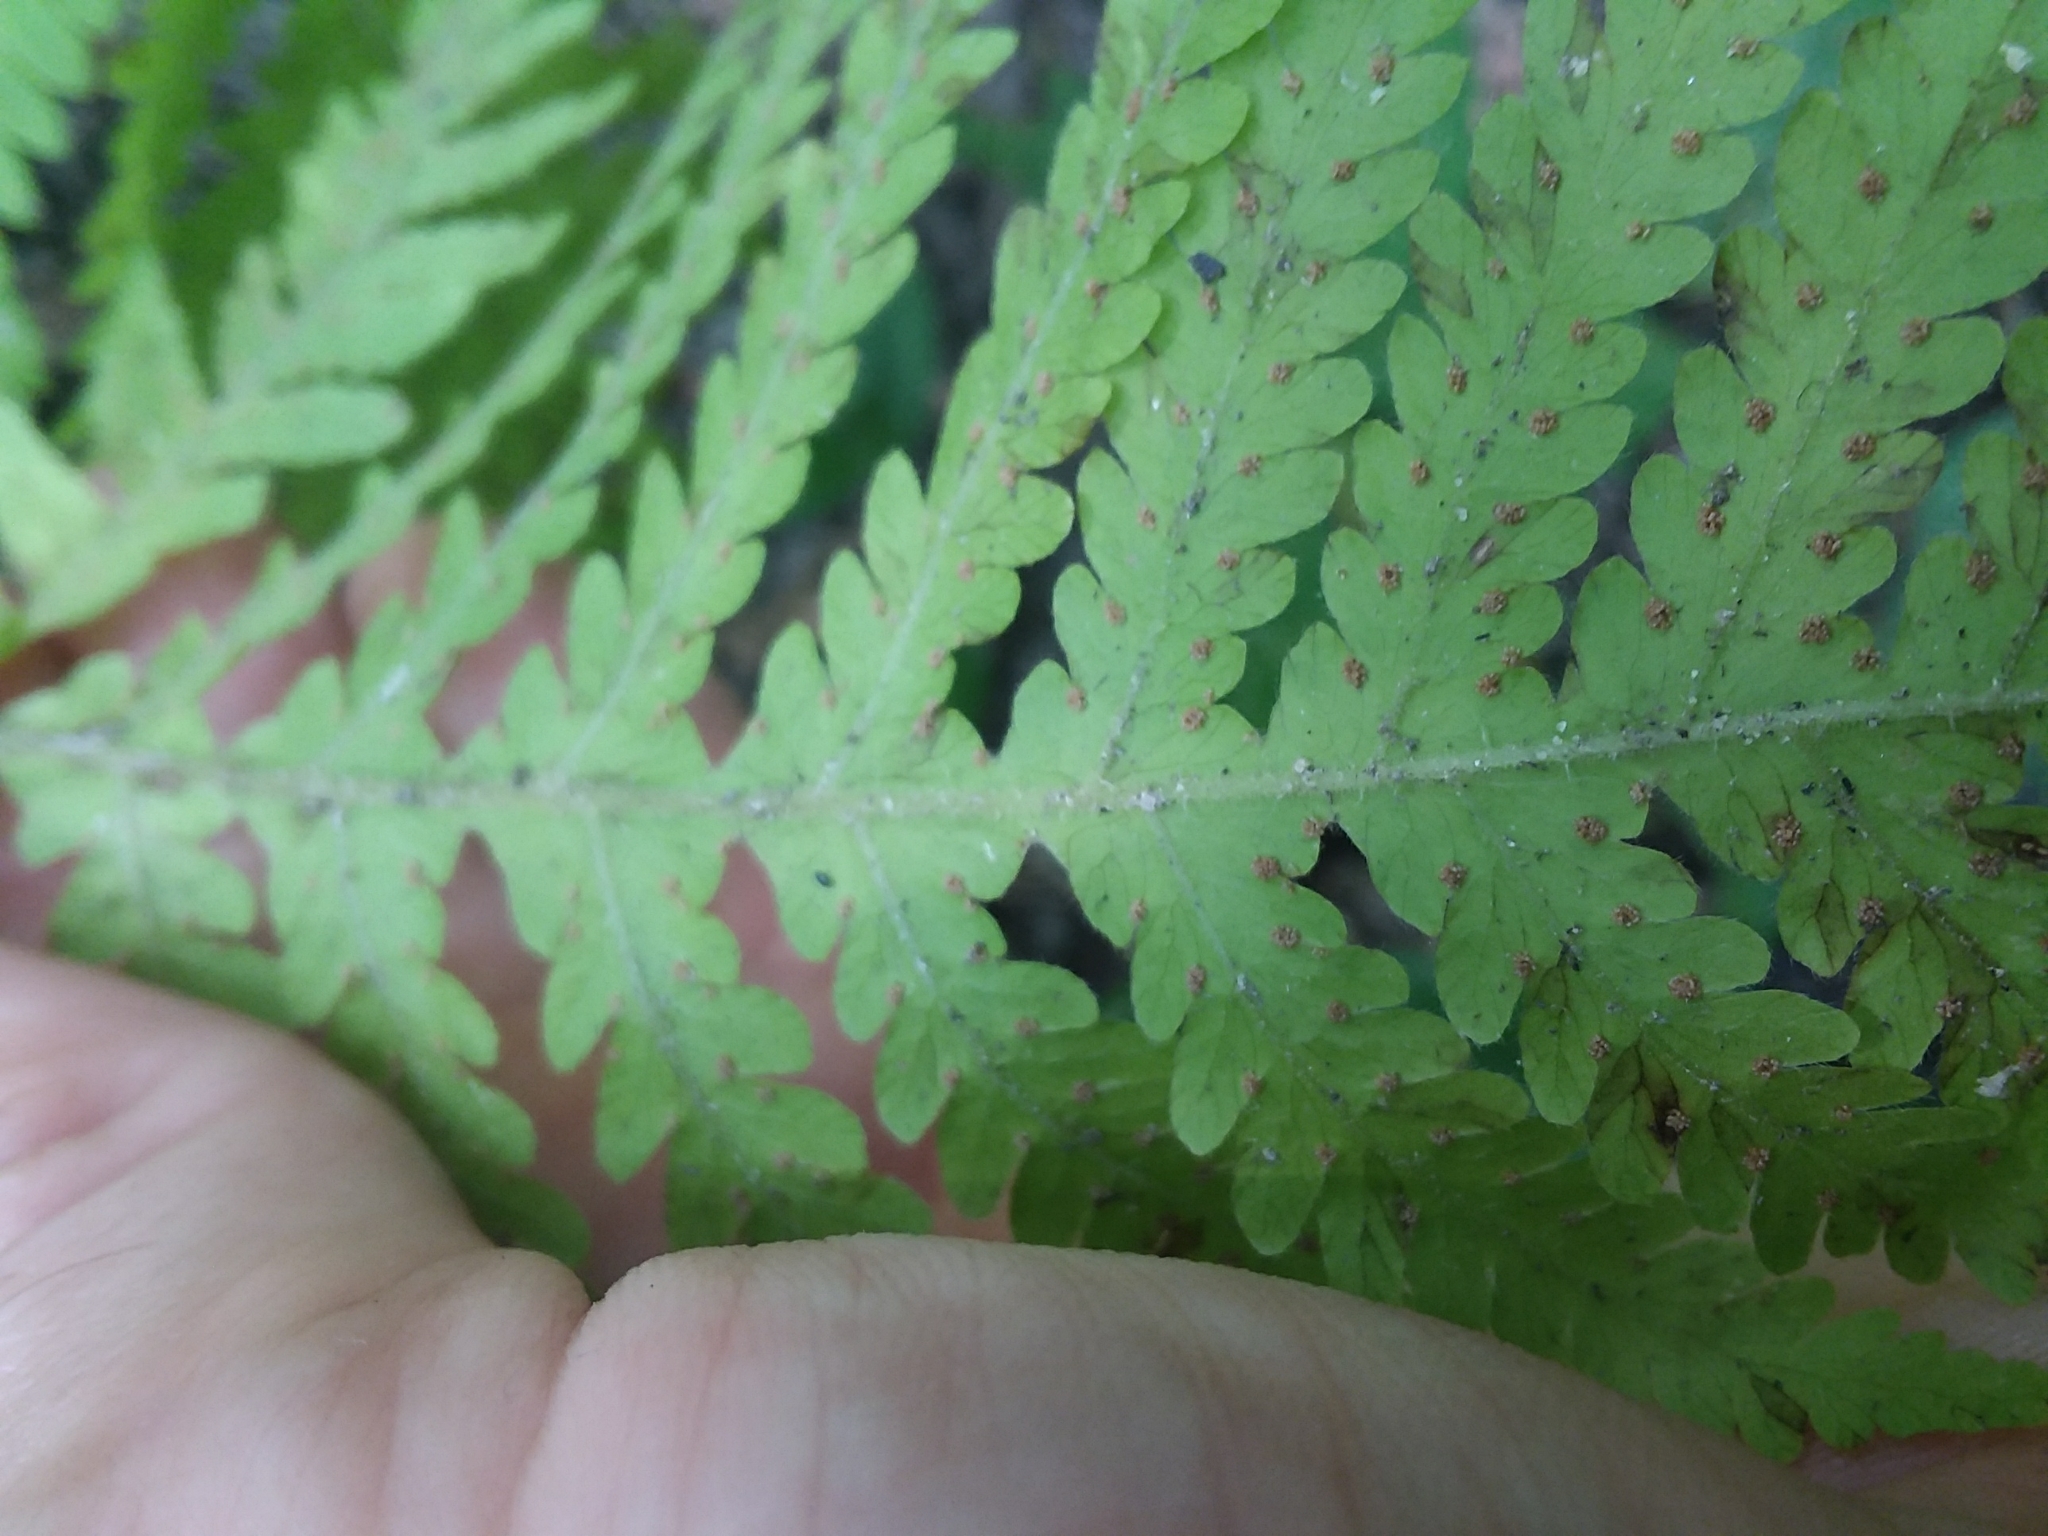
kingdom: Plantae
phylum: Tracheophyta
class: Polypodiopsida
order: Polypodiales
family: Thelypteridaceae
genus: Phegopteris
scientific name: Phegopteris hexagonoptera
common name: Broad beech fern
